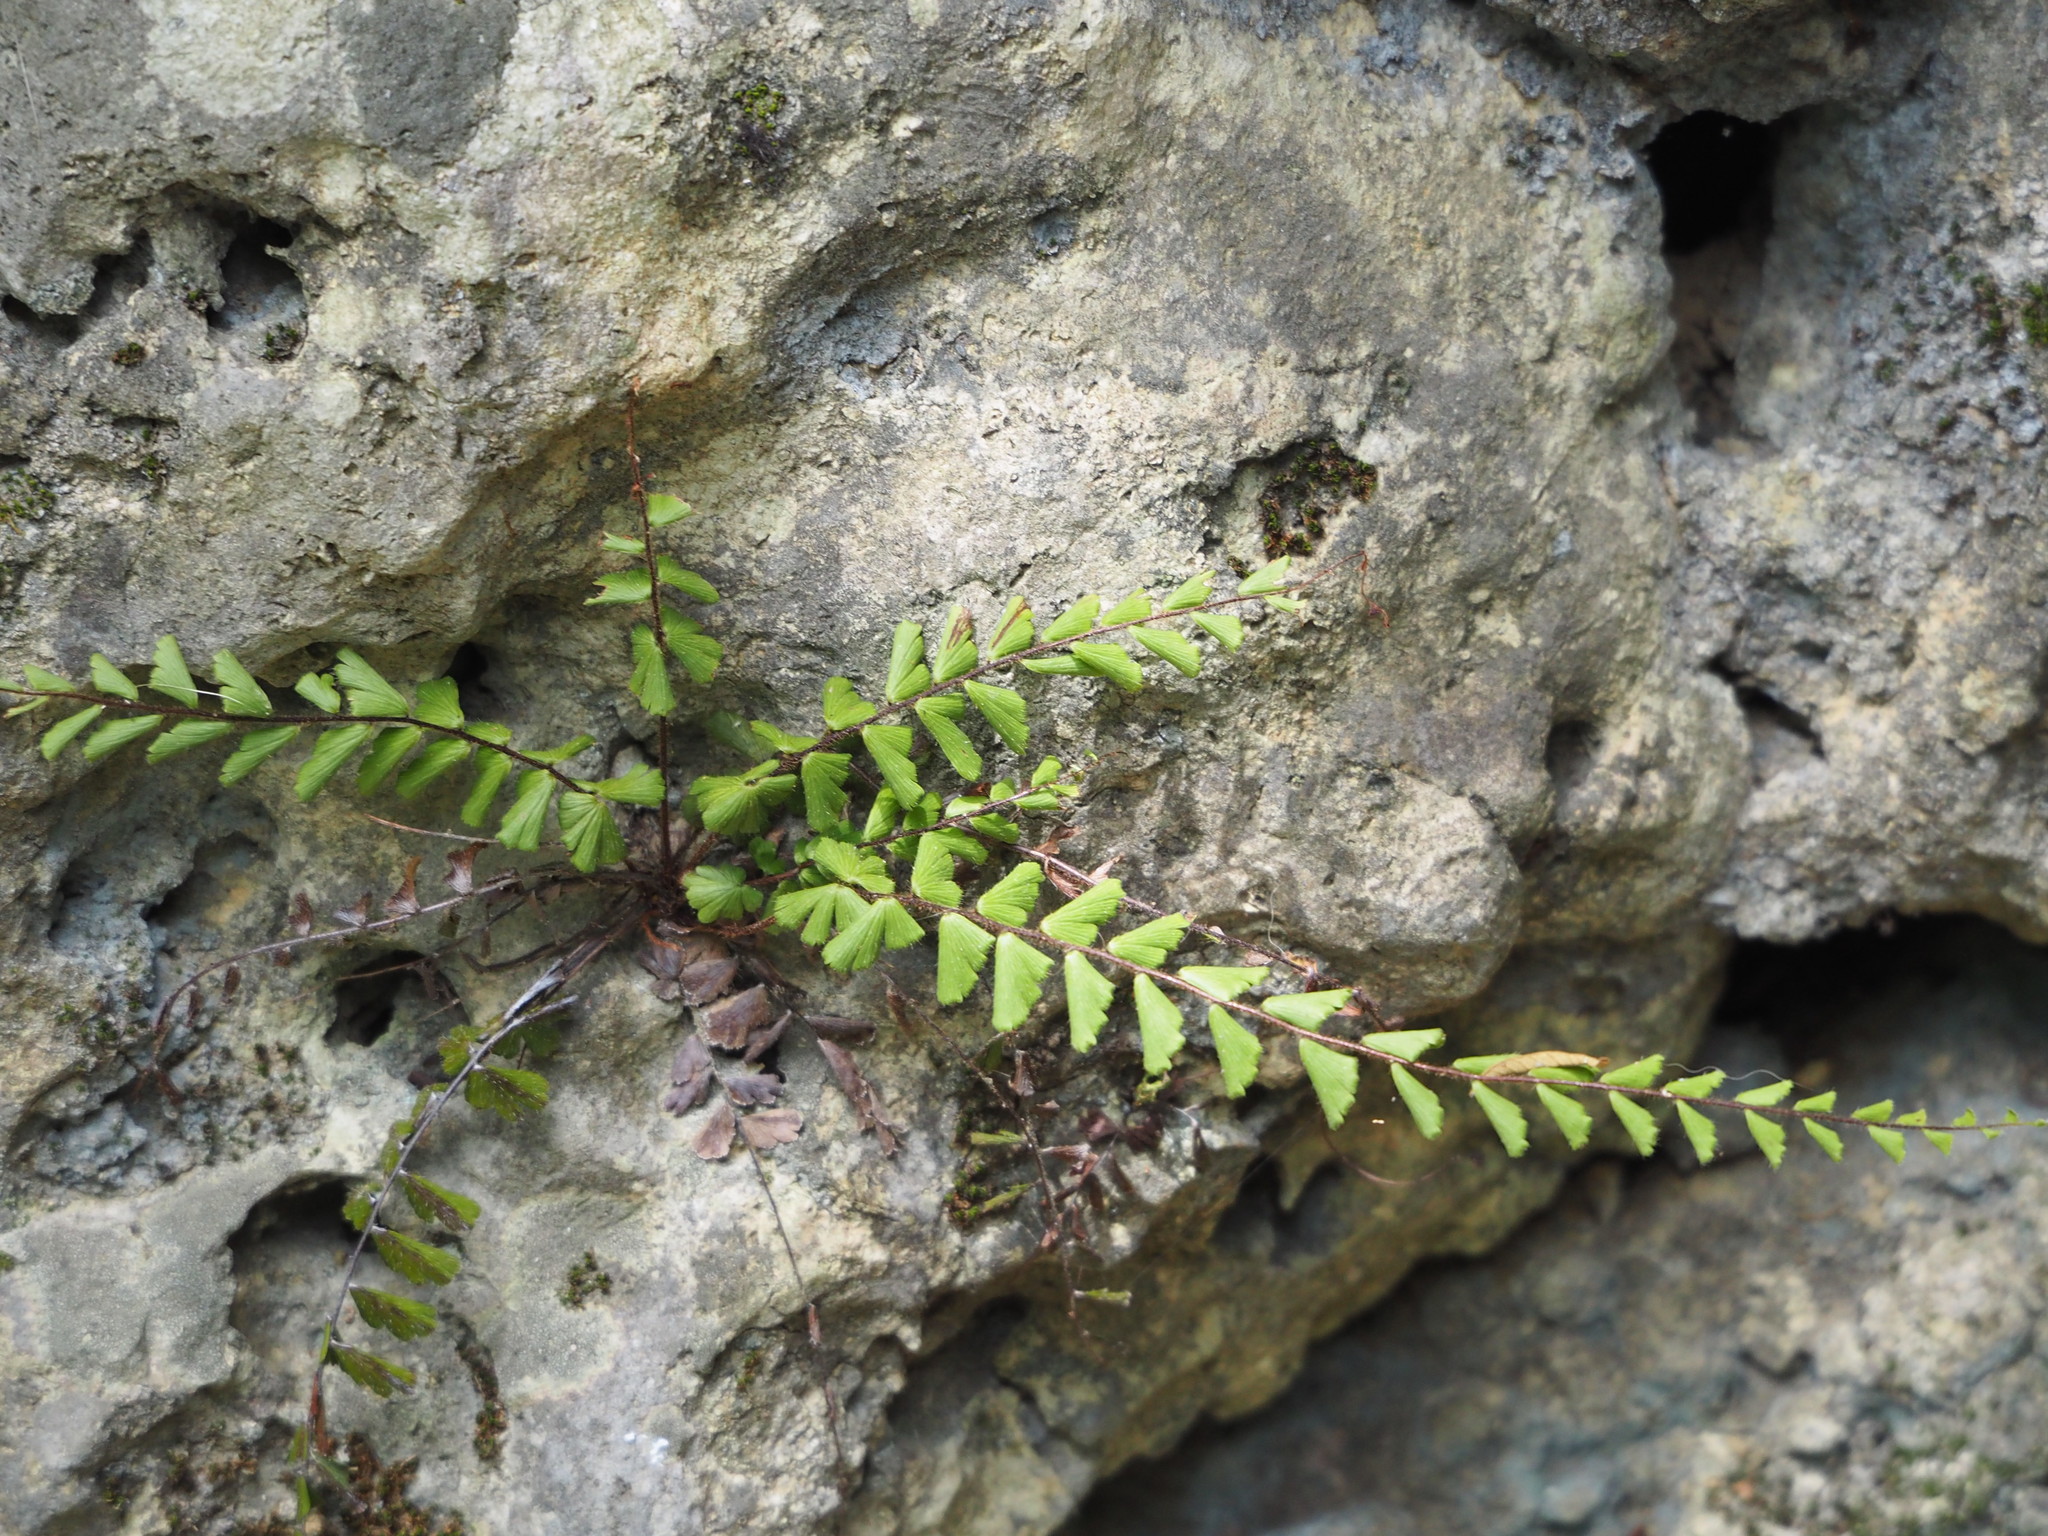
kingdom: Plantae
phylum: Tracheophyta
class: Polypodiopsida
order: Polypodiales
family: Pteridaceae
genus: Adiantum
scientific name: Adiantum ciliatum
